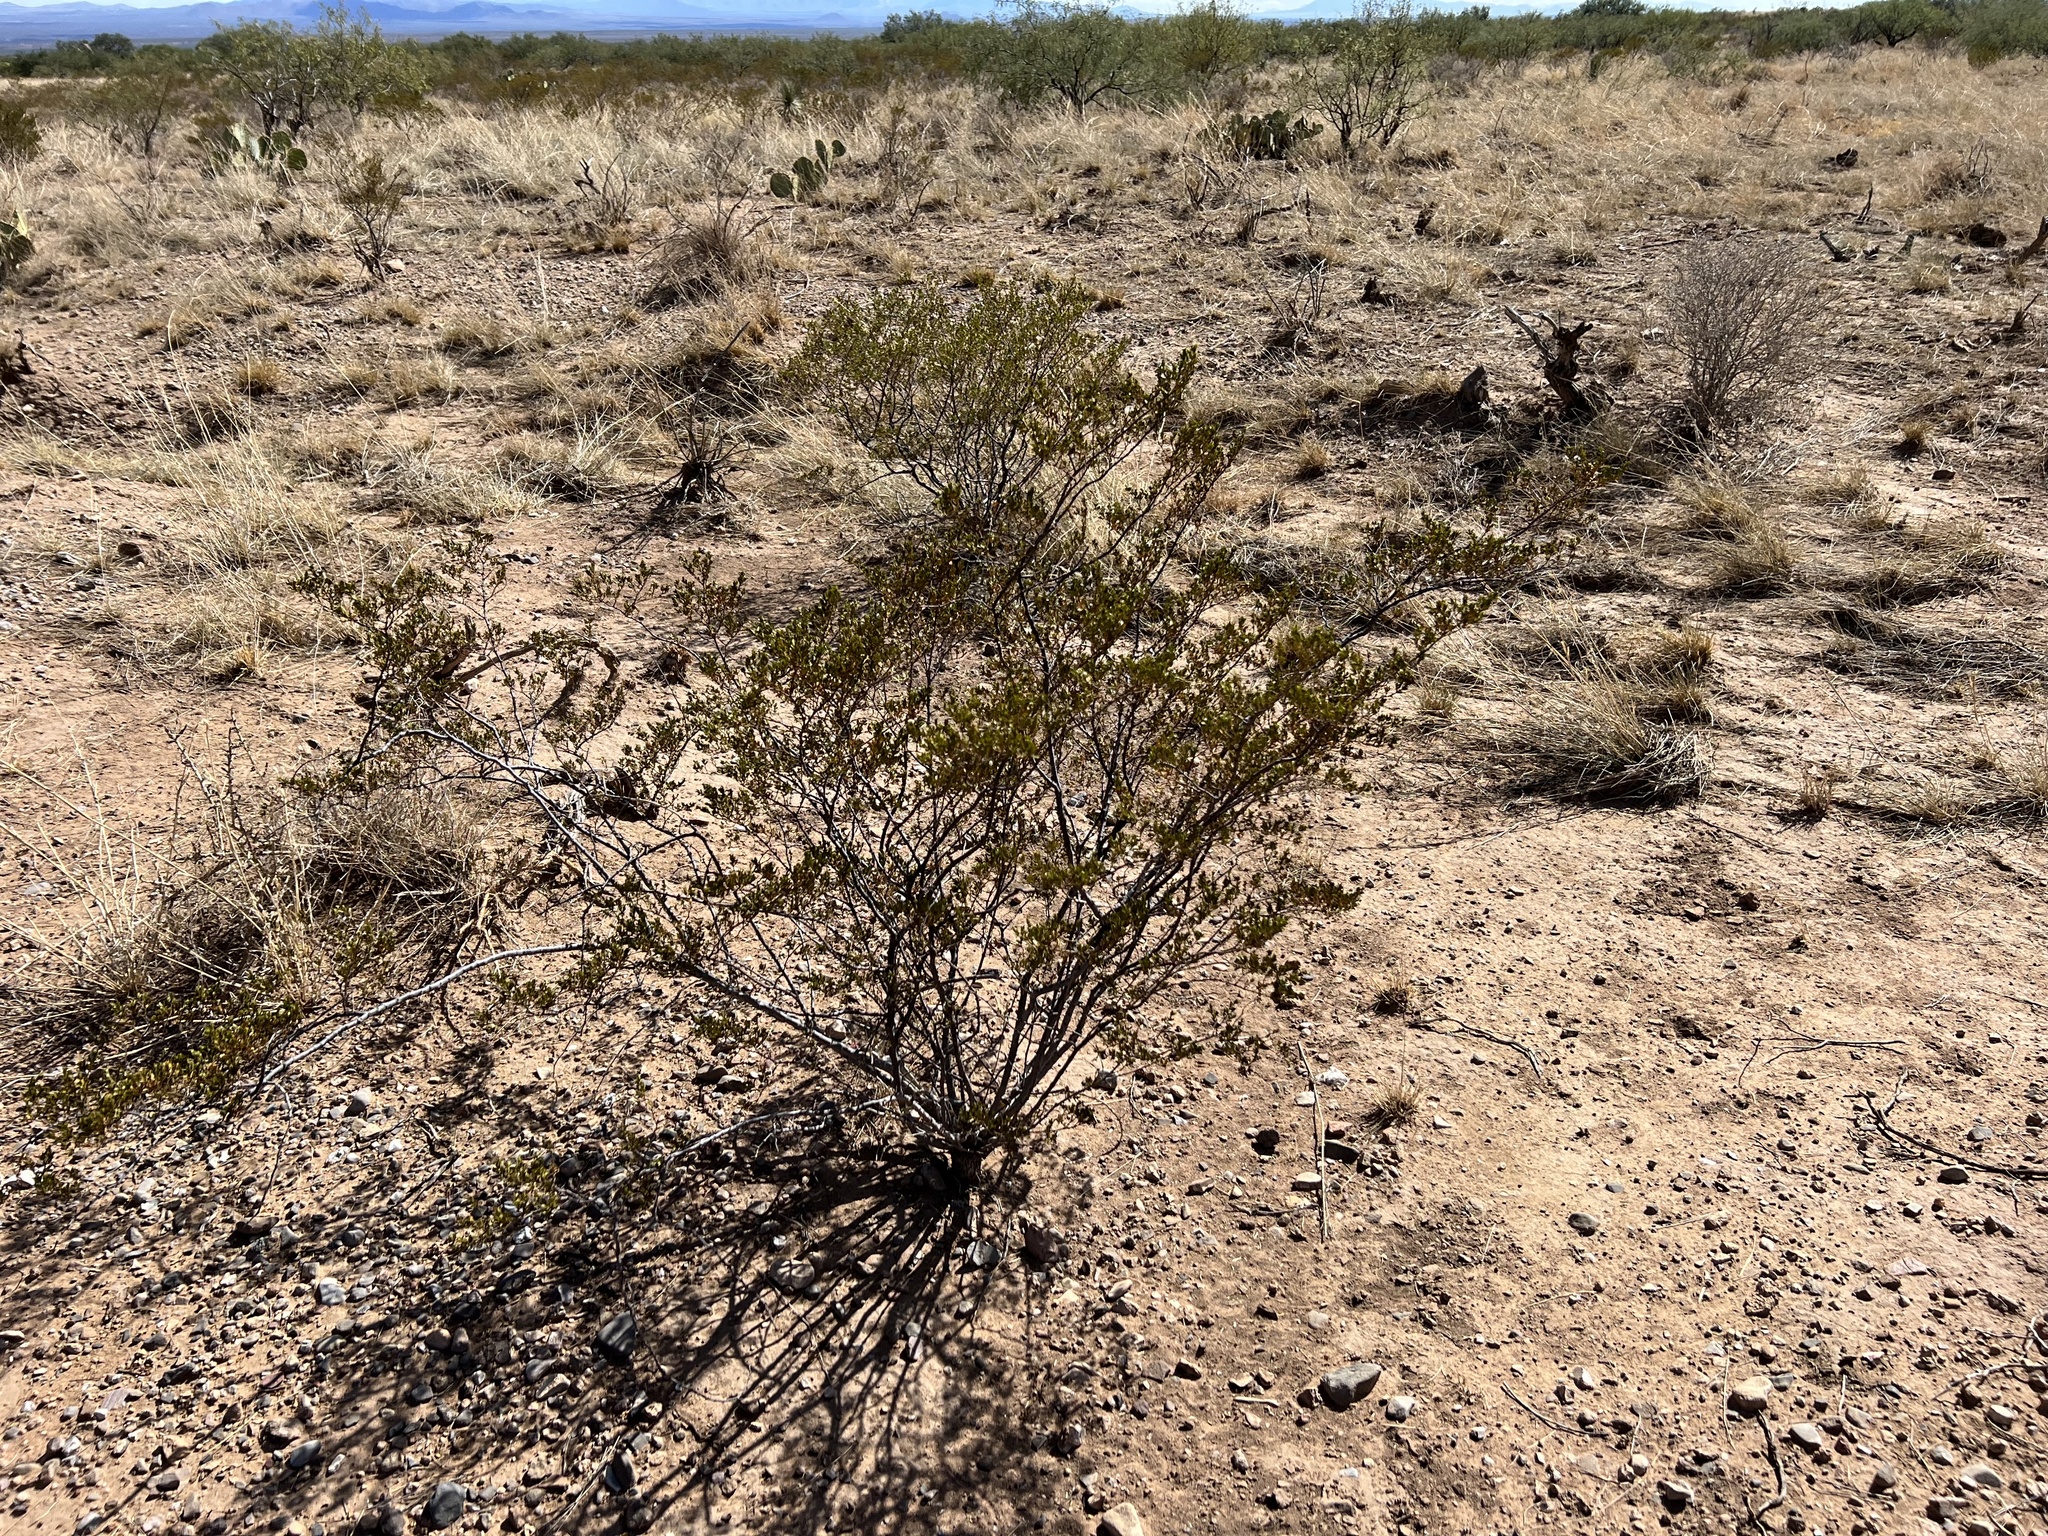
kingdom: Plantae
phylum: Tracheophyta
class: Magnoliopsida
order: Zygophyllales
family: Zygophyllaceae
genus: Larrea
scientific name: Larrea tridentata
